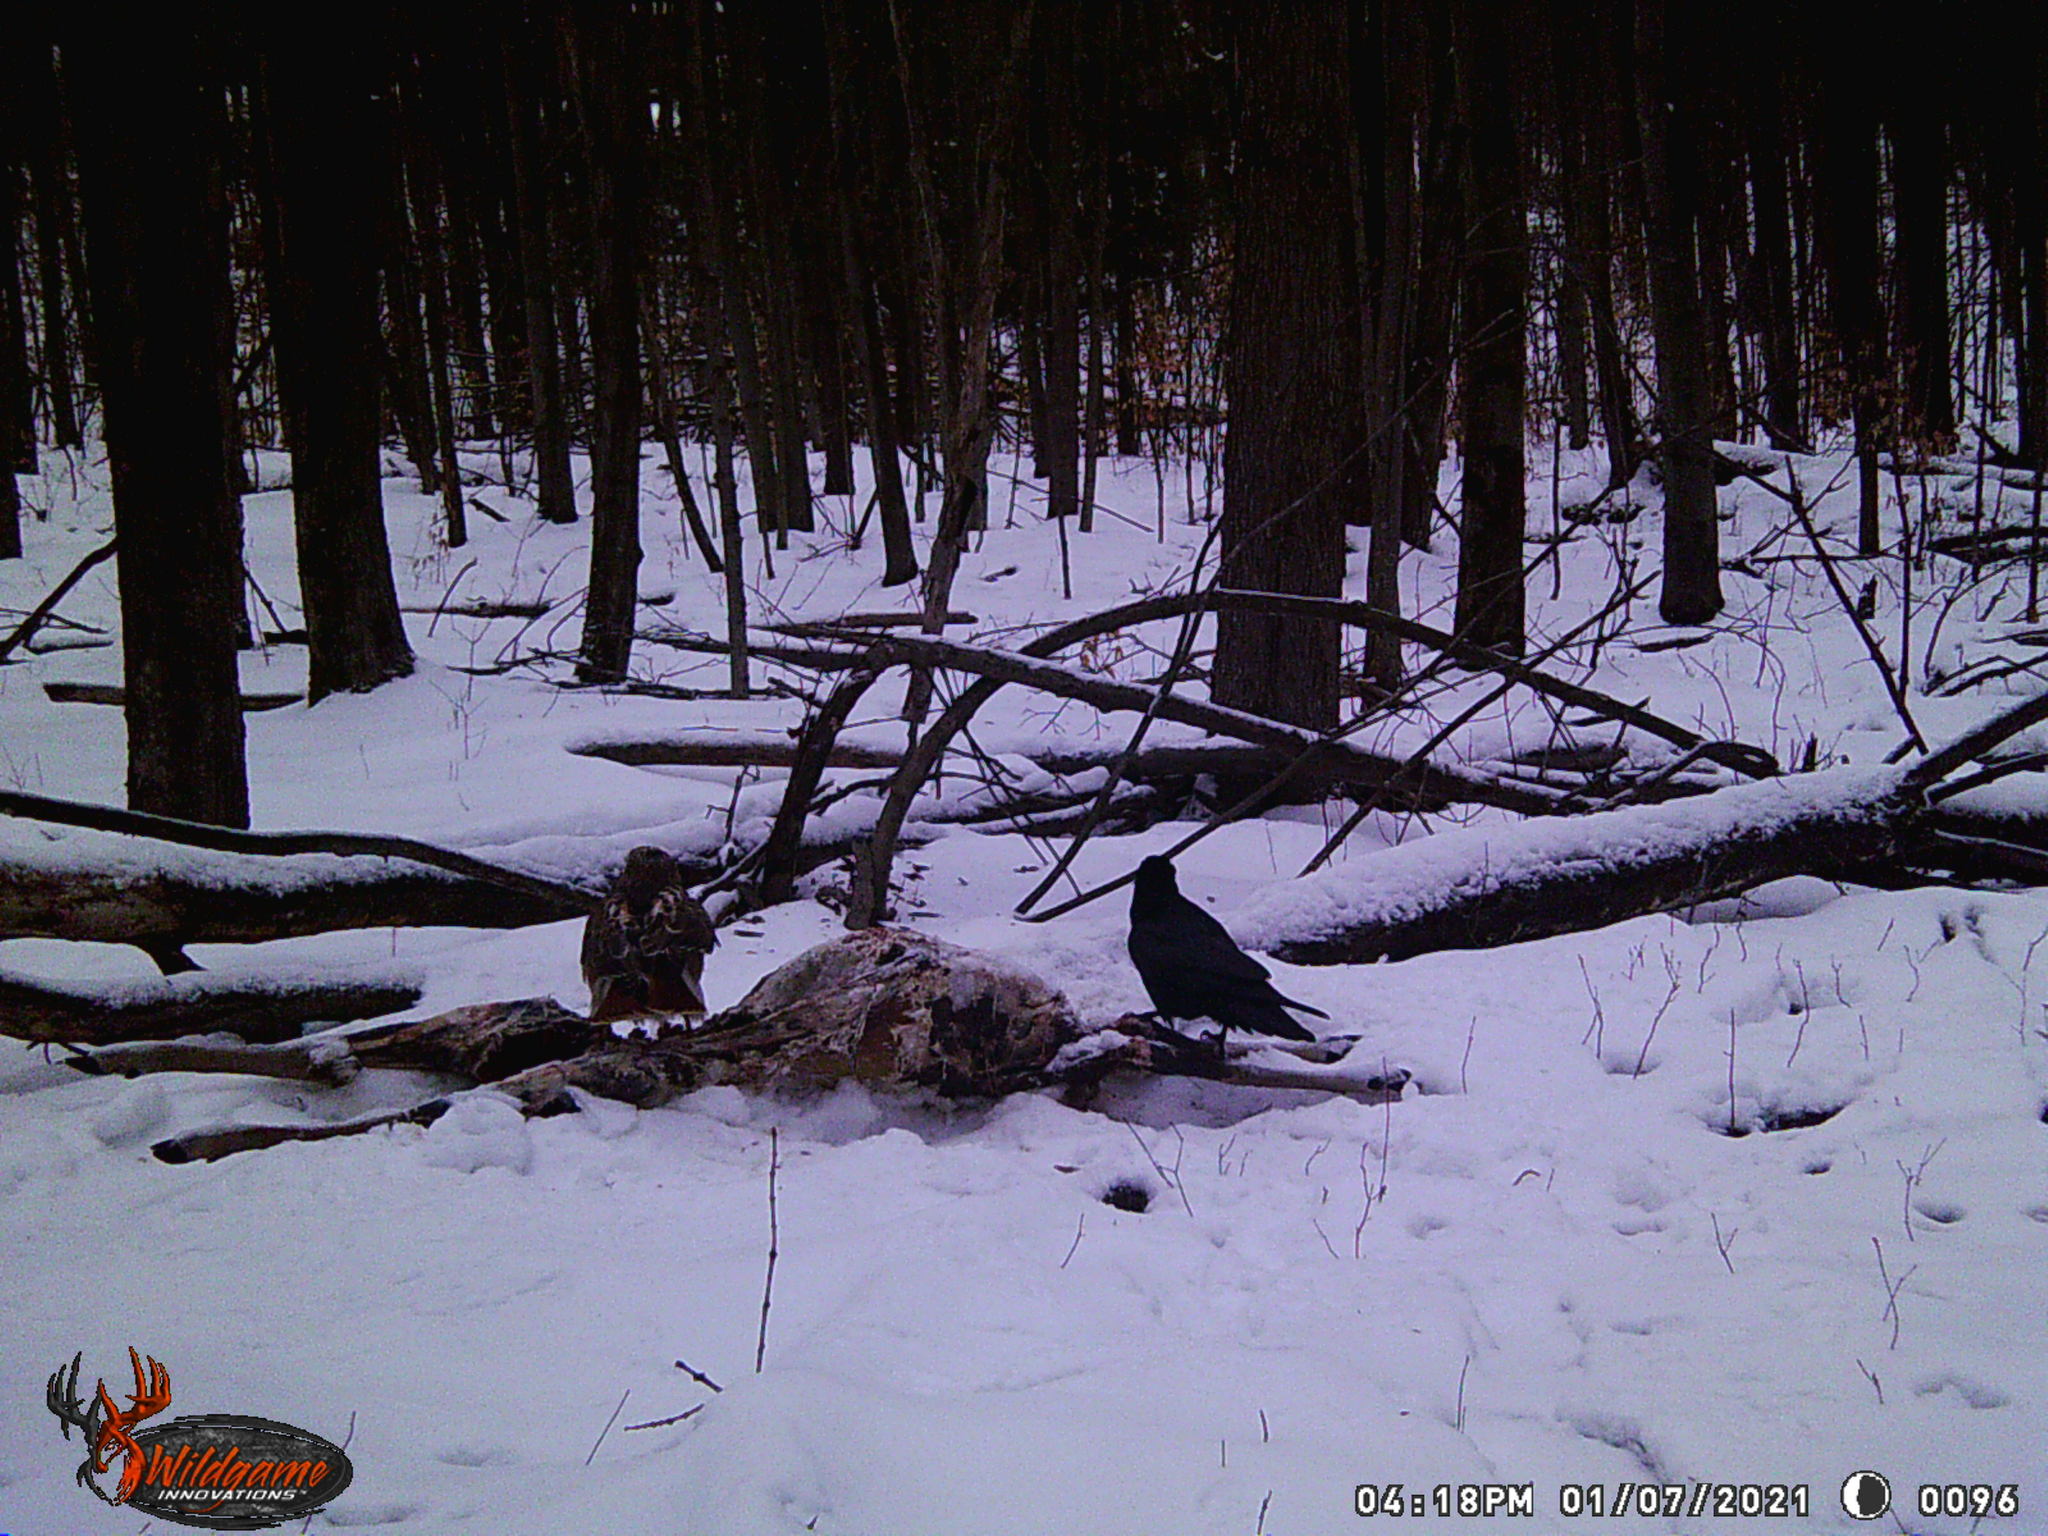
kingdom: Animalia
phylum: Chordata
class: Aves
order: Passeriformes
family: Corvidae
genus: Corvus
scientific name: Corvus corax
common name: Common raven
